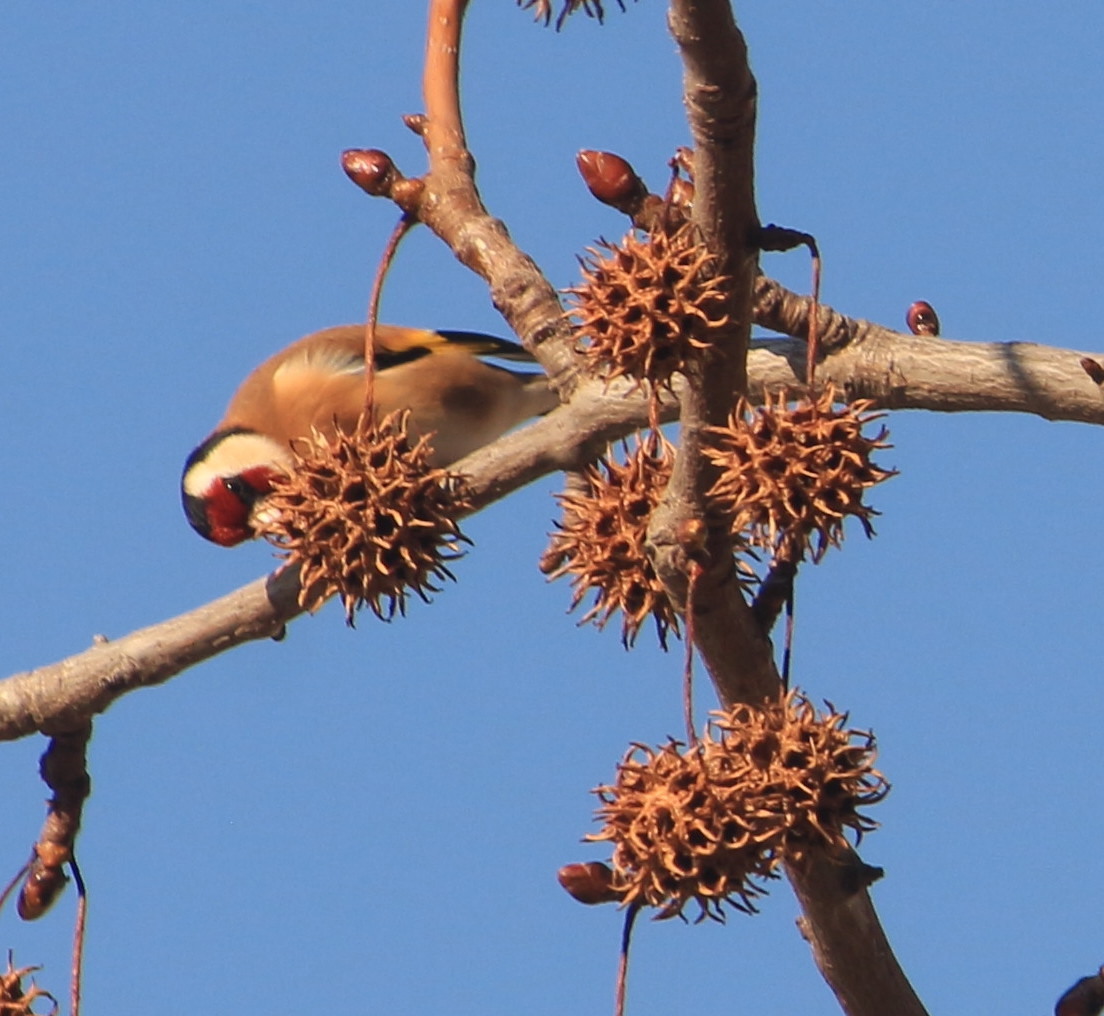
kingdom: Animalia
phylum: Chordata
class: Aves
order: Passeriformes
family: Fringillidae
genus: Carduelis
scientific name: Carduelis carduelis
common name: European goldfinch
